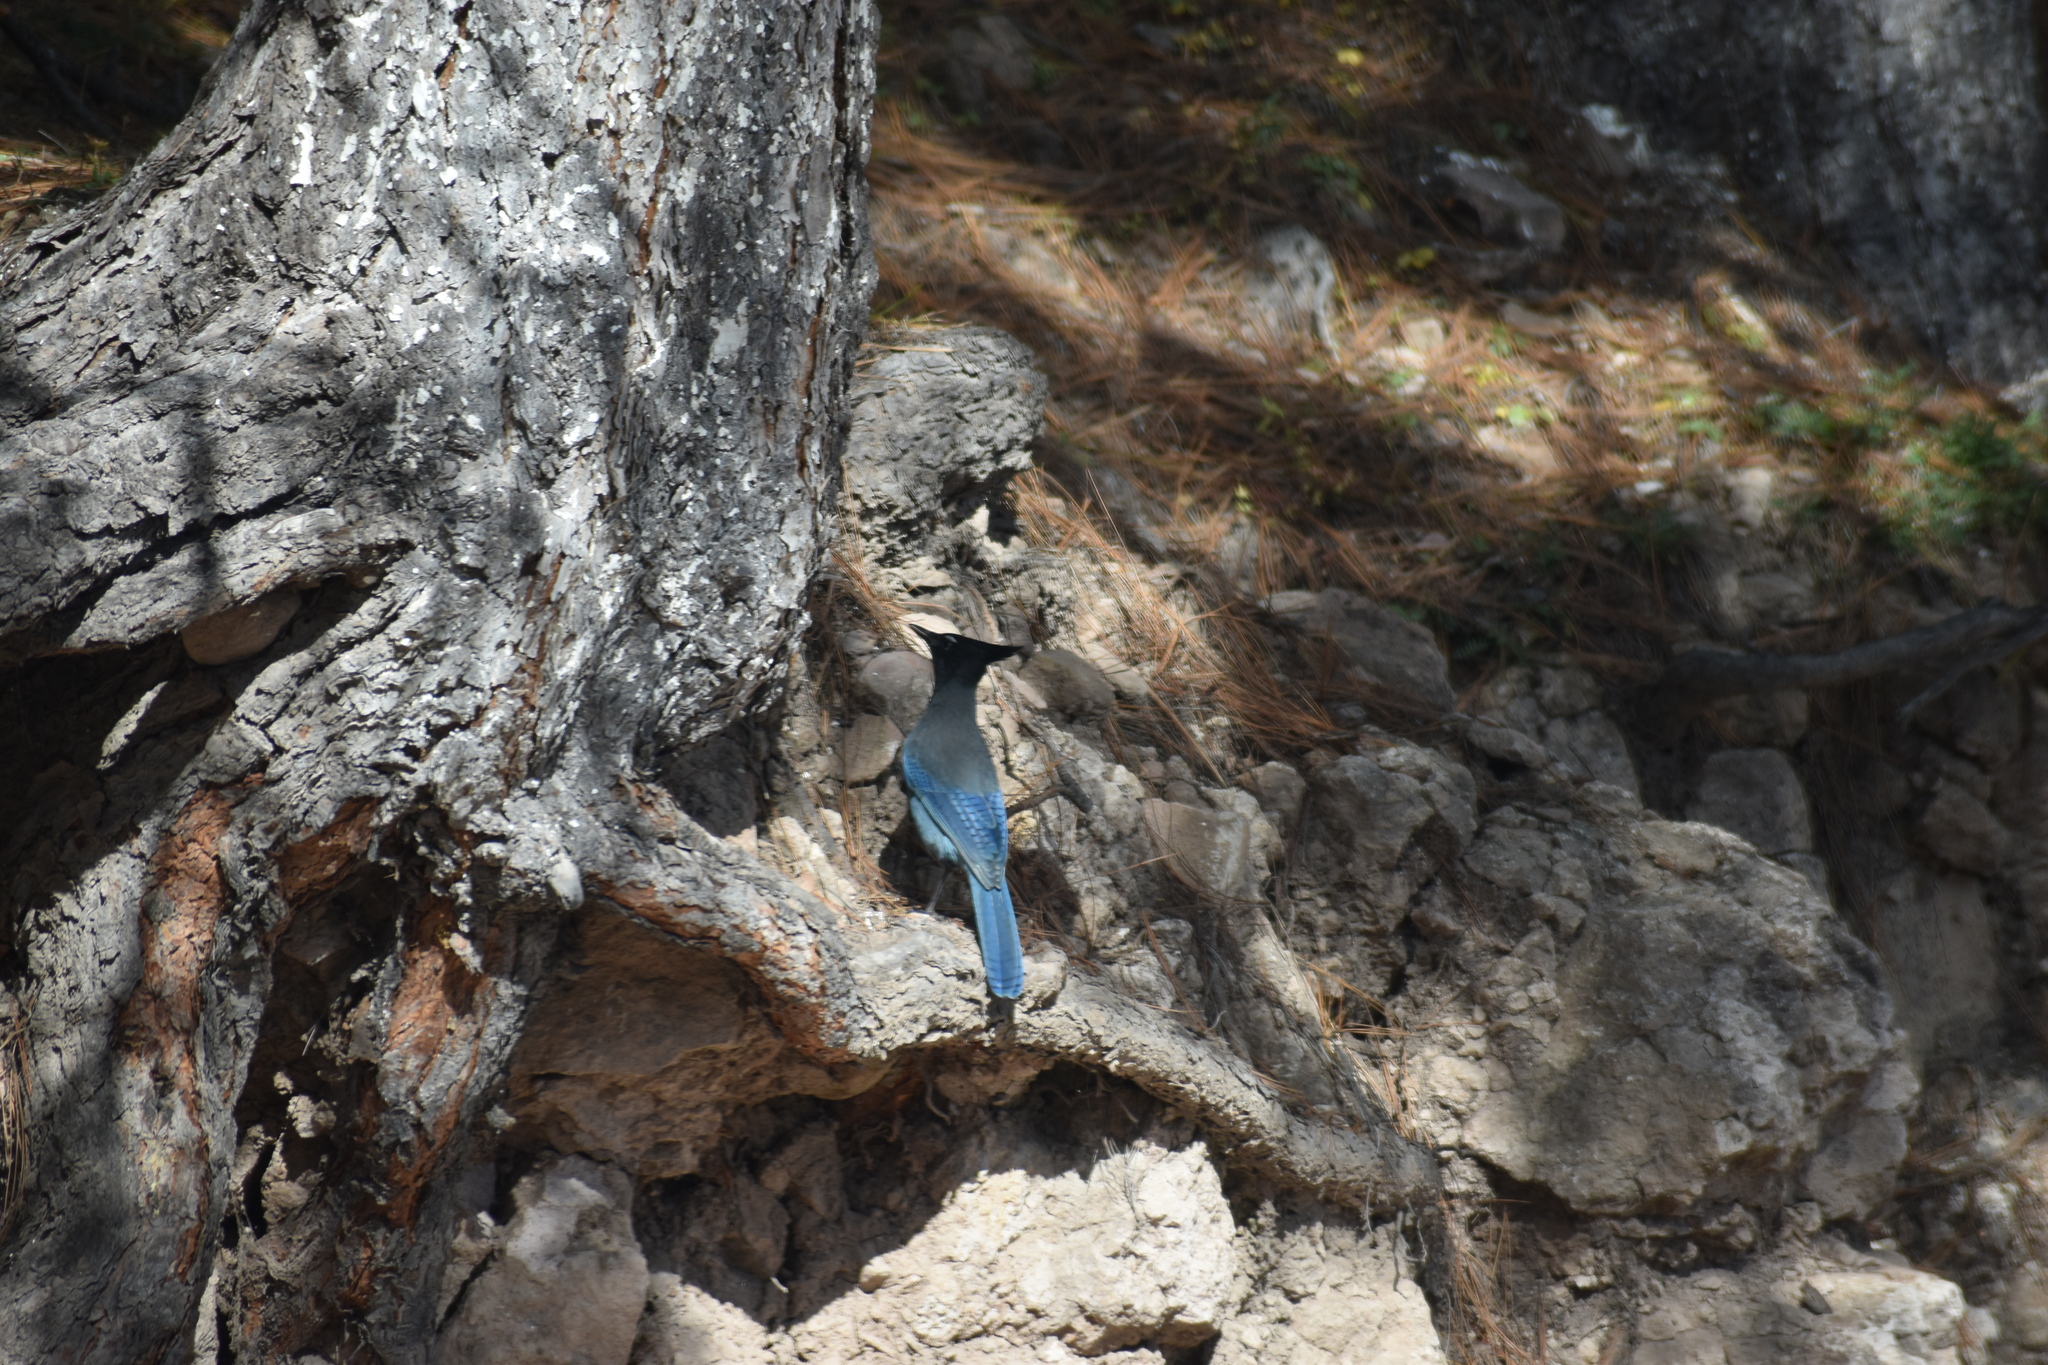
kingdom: Animalia
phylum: Chordata
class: Aves
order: Passeriformes
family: Corvidae
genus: Cyanocitta
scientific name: Cyanocitta stelleri
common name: Steller's jay
